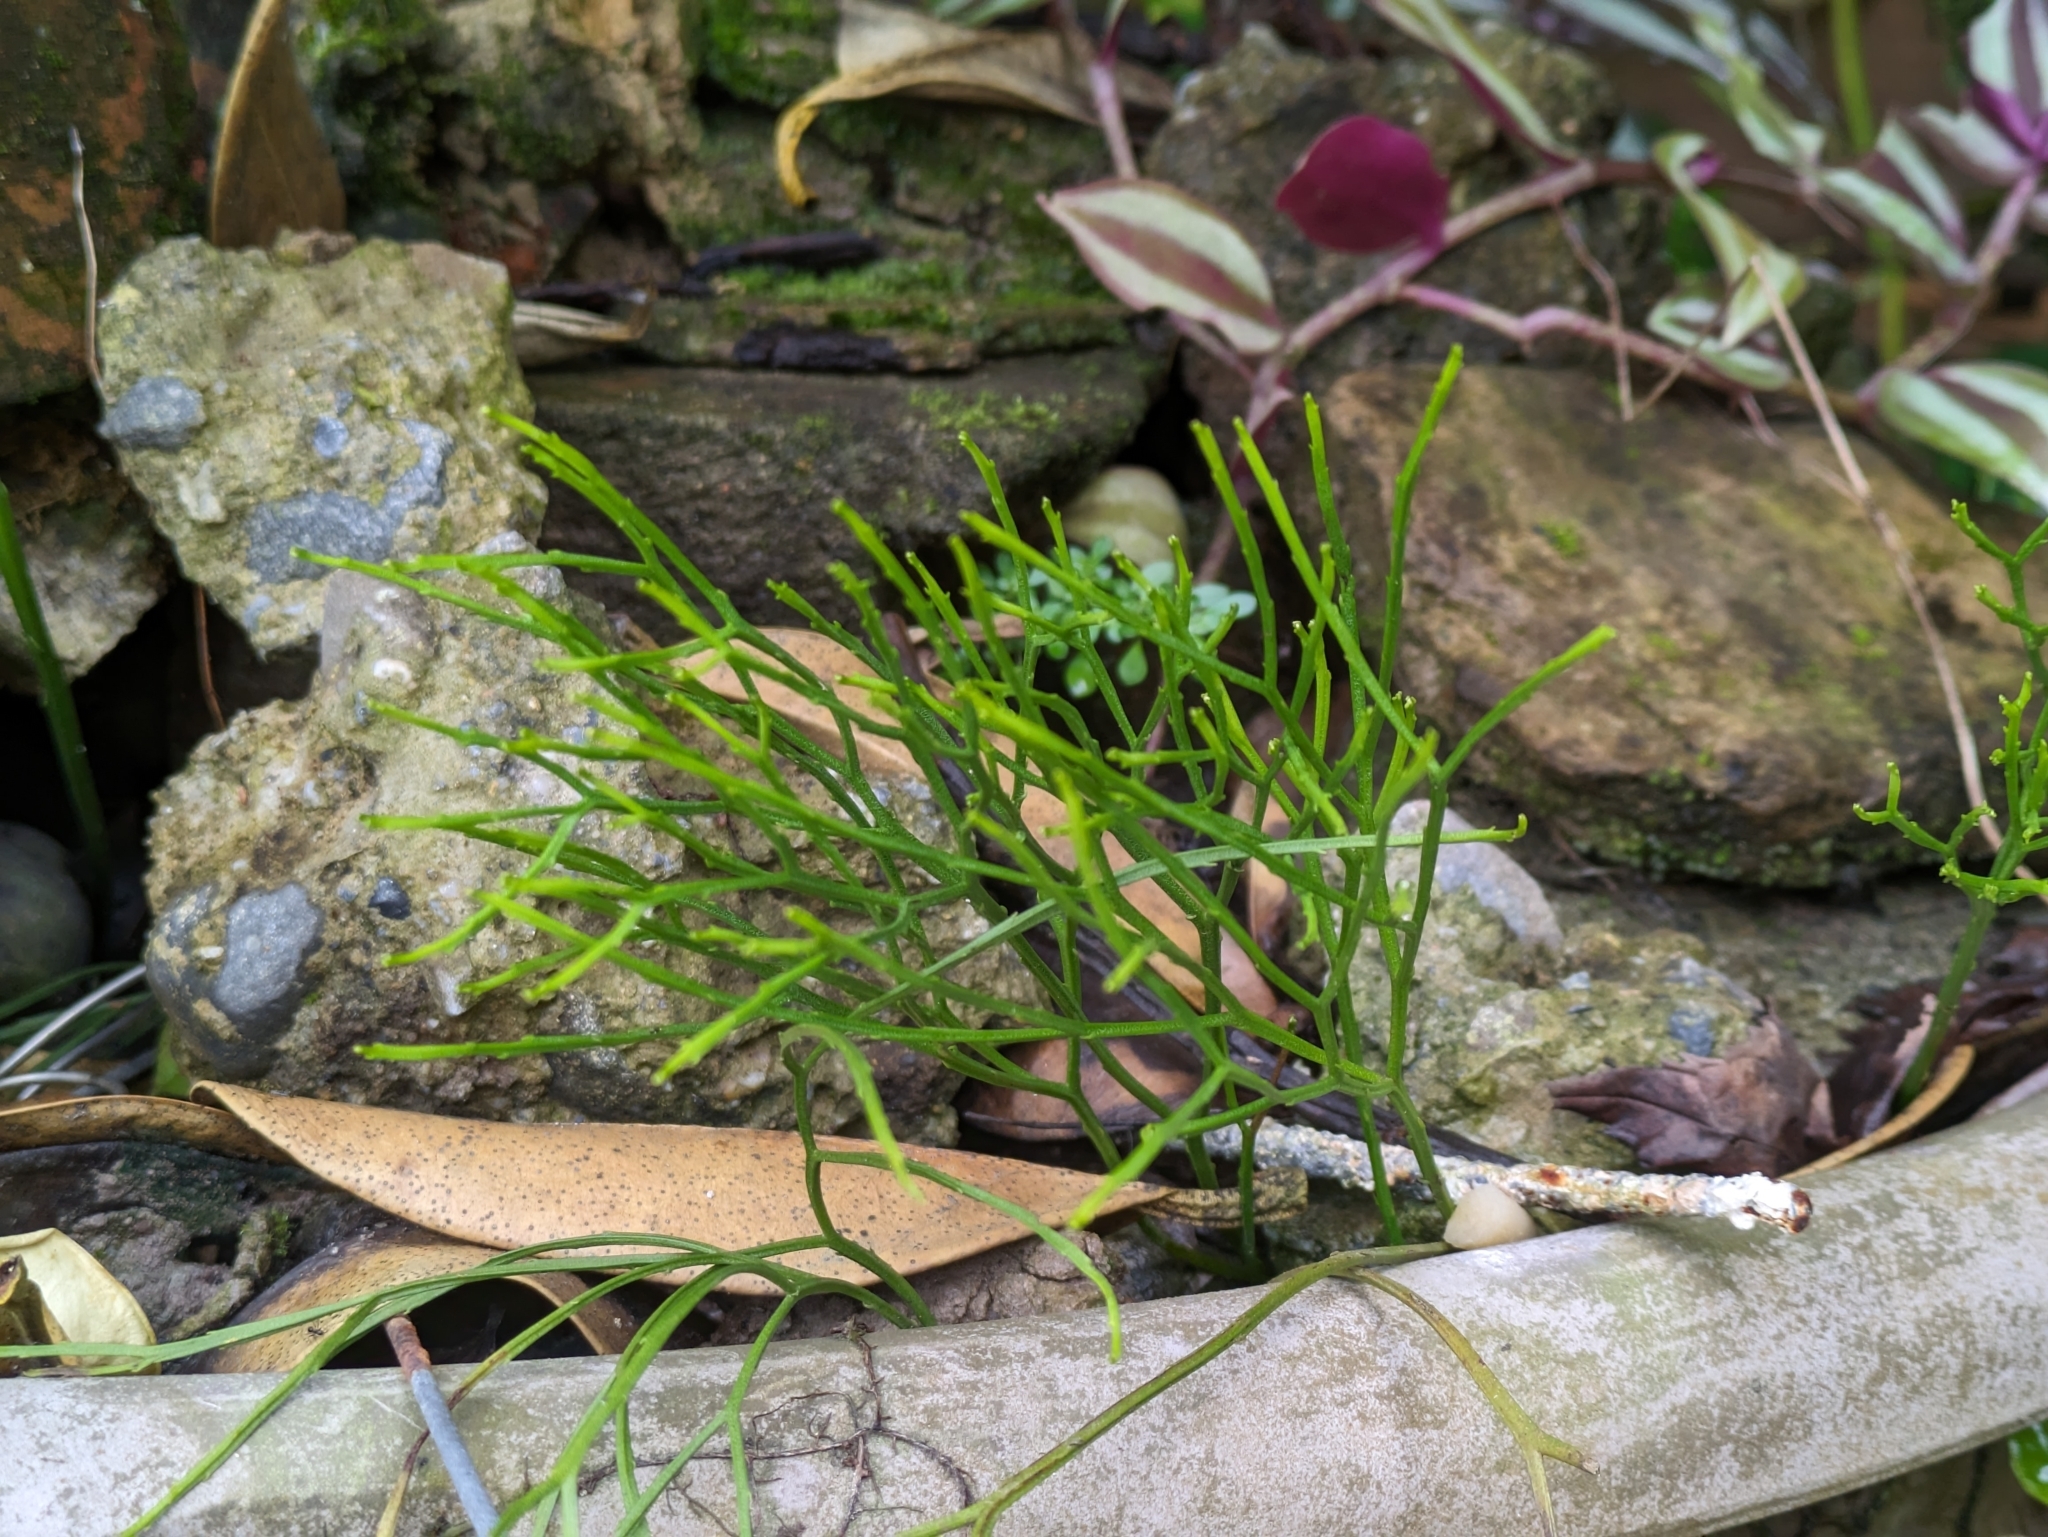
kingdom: Plantae
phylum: Tracheophyta
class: Polypodiopsida
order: Psilotales
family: Psilotaceae
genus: Psilotum
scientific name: Psilotum nudum
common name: Skeleton fork fern
